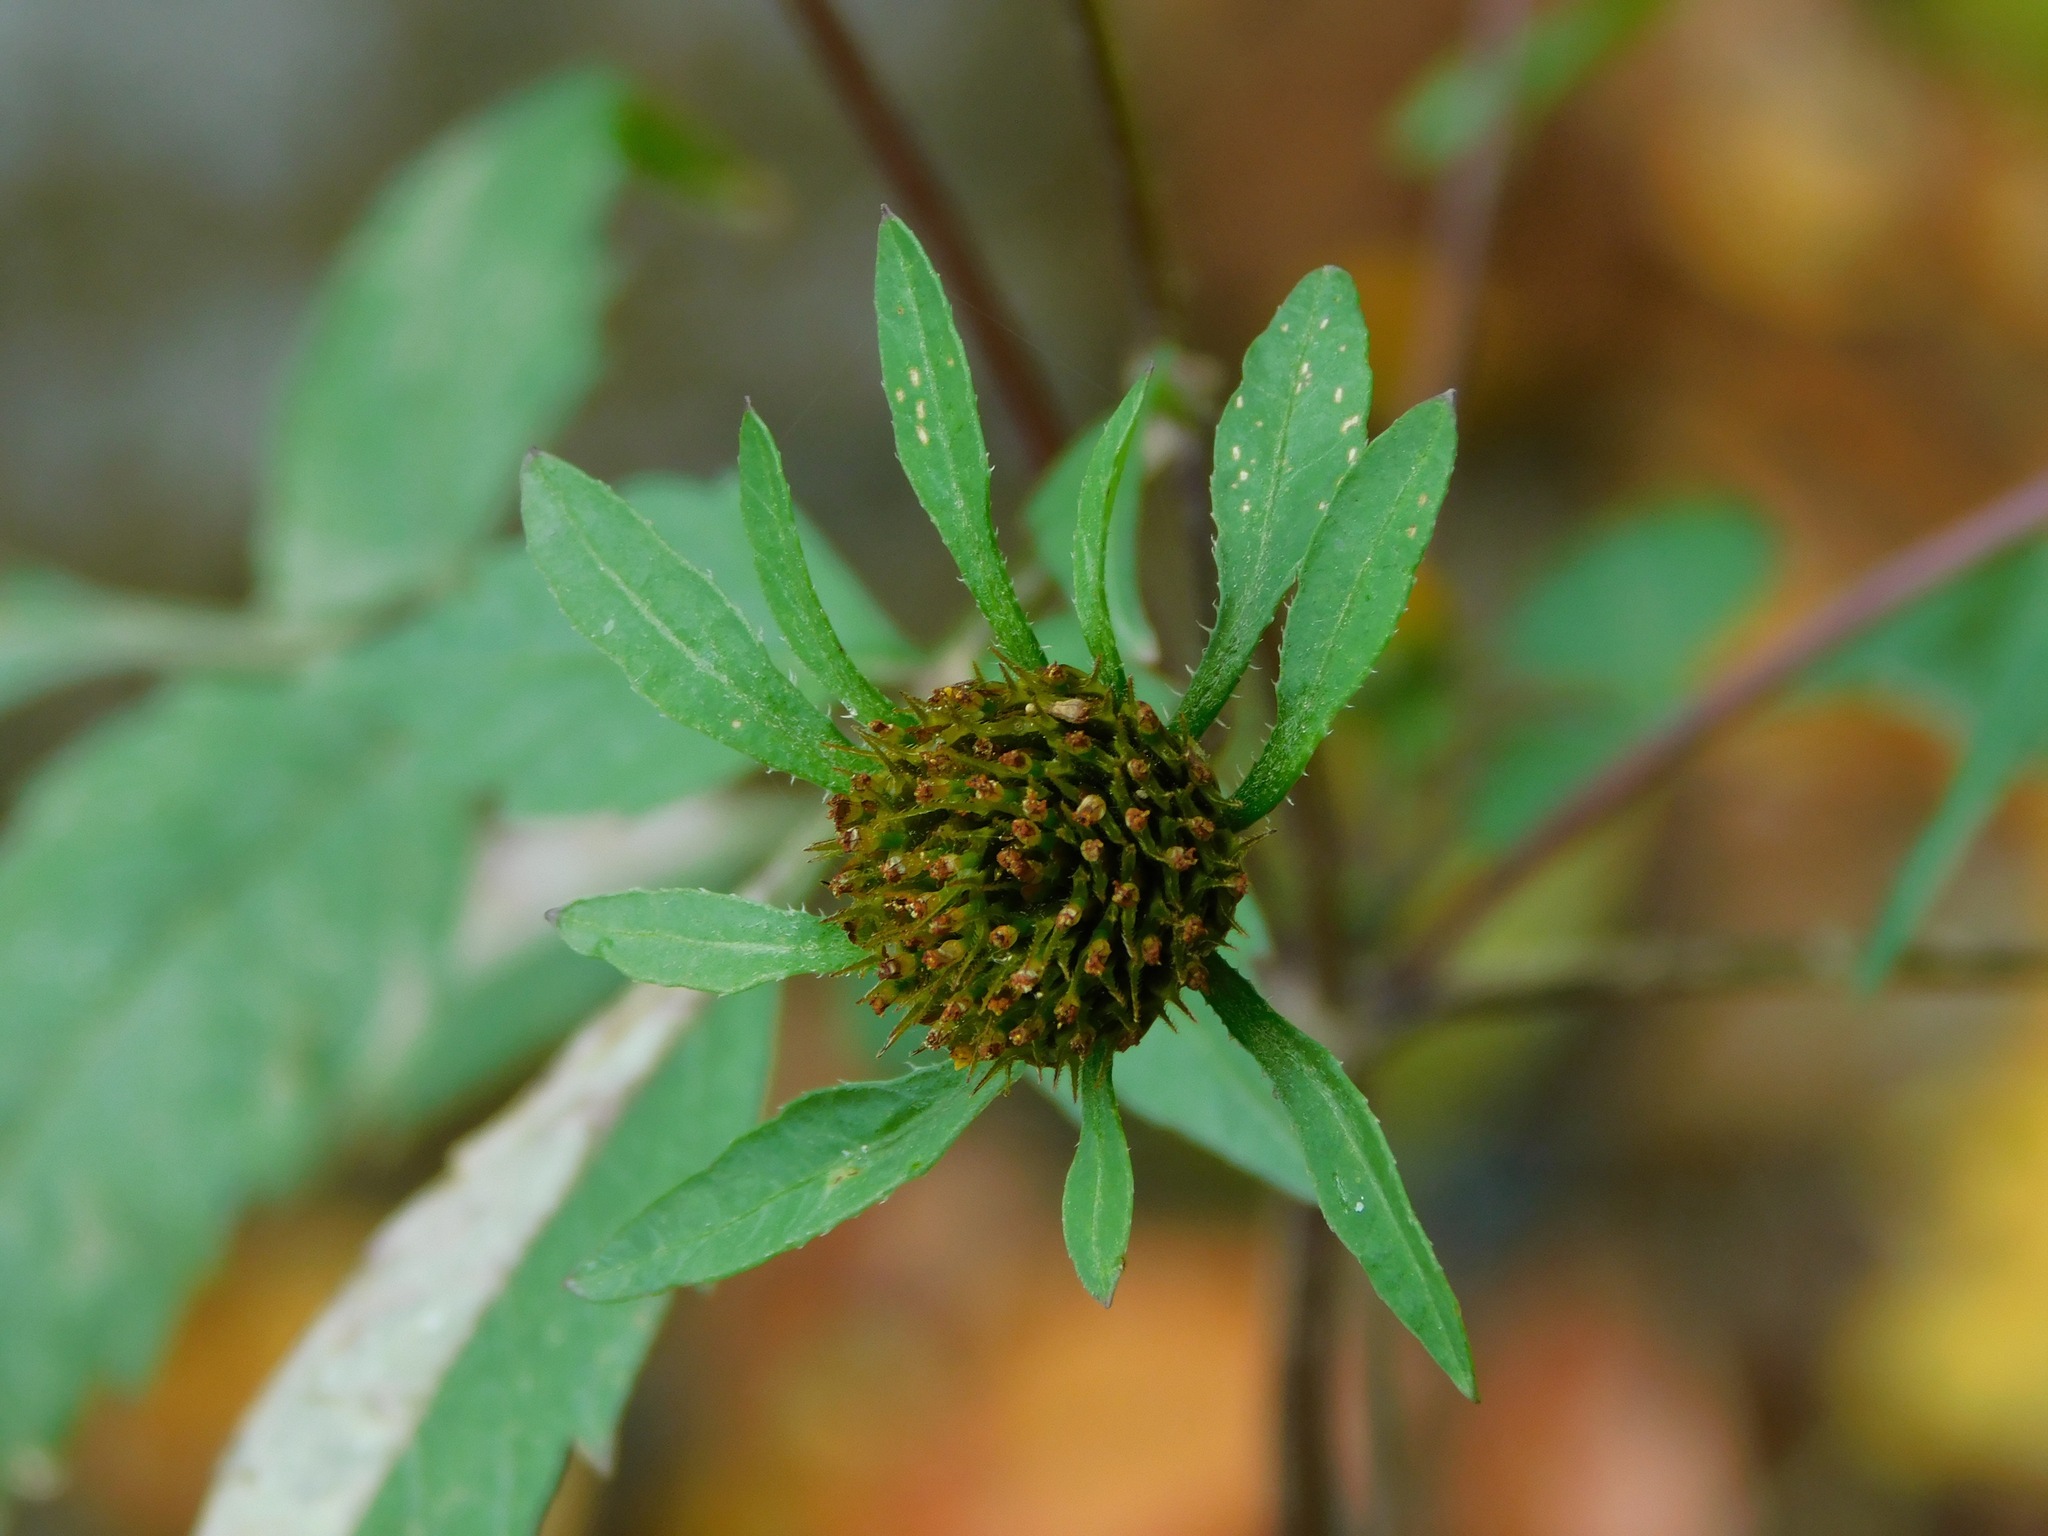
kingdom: Plantae
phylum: Tracheophyta
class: Magnoliopsida
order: Asterales
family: Asteraceae
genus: Bidens
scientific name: Bidens vulgata
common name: Tall beggarticks
